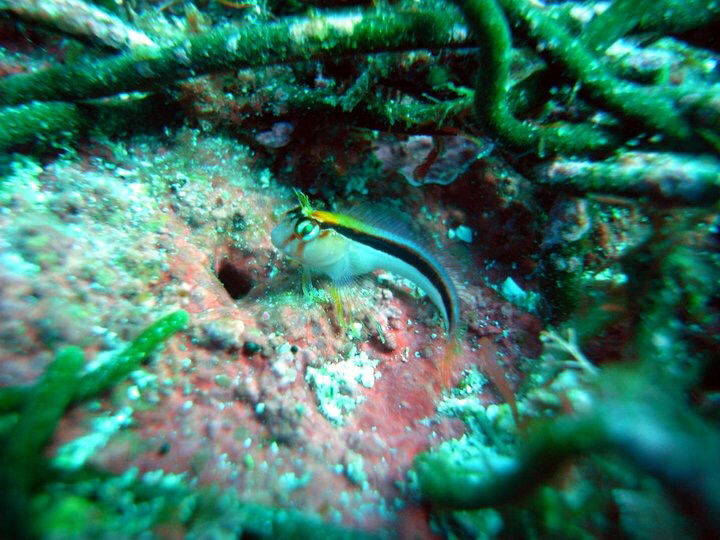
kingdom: Animalia
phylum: Chordata
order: Perciformes
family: Blenniidae
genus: Parablennius
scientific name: Parablennius laticlavius
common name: Crested blenny
